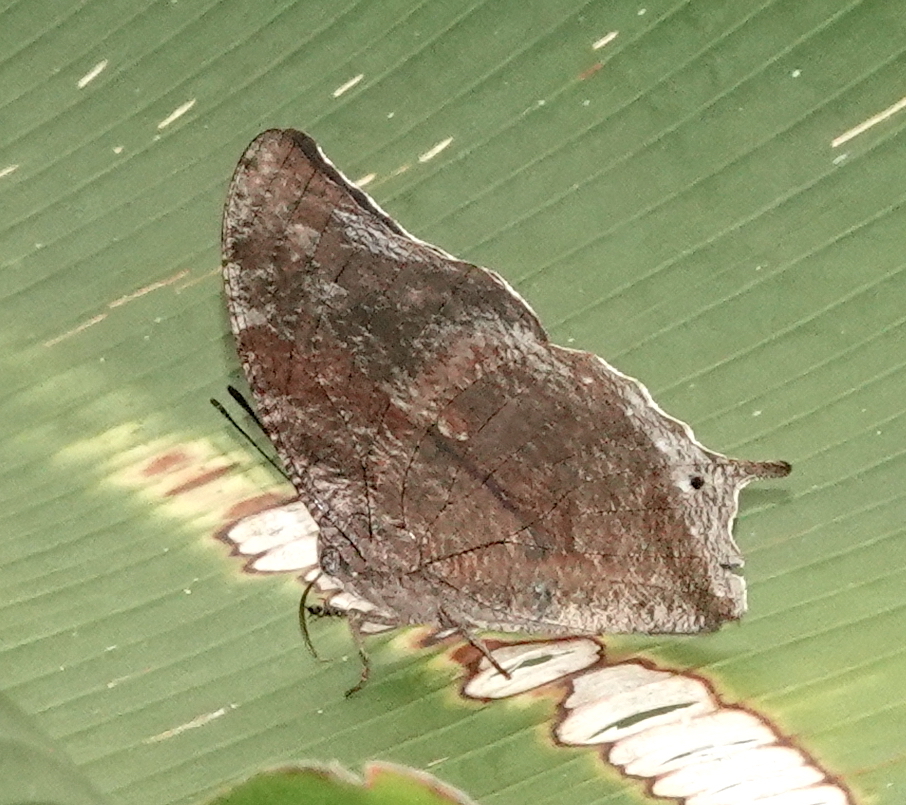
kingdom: Animalia
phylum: Arthropoda
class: Insecta
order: Lepidoptera
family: Nymphalidae
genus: Memphis
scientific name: Memphis perenna
